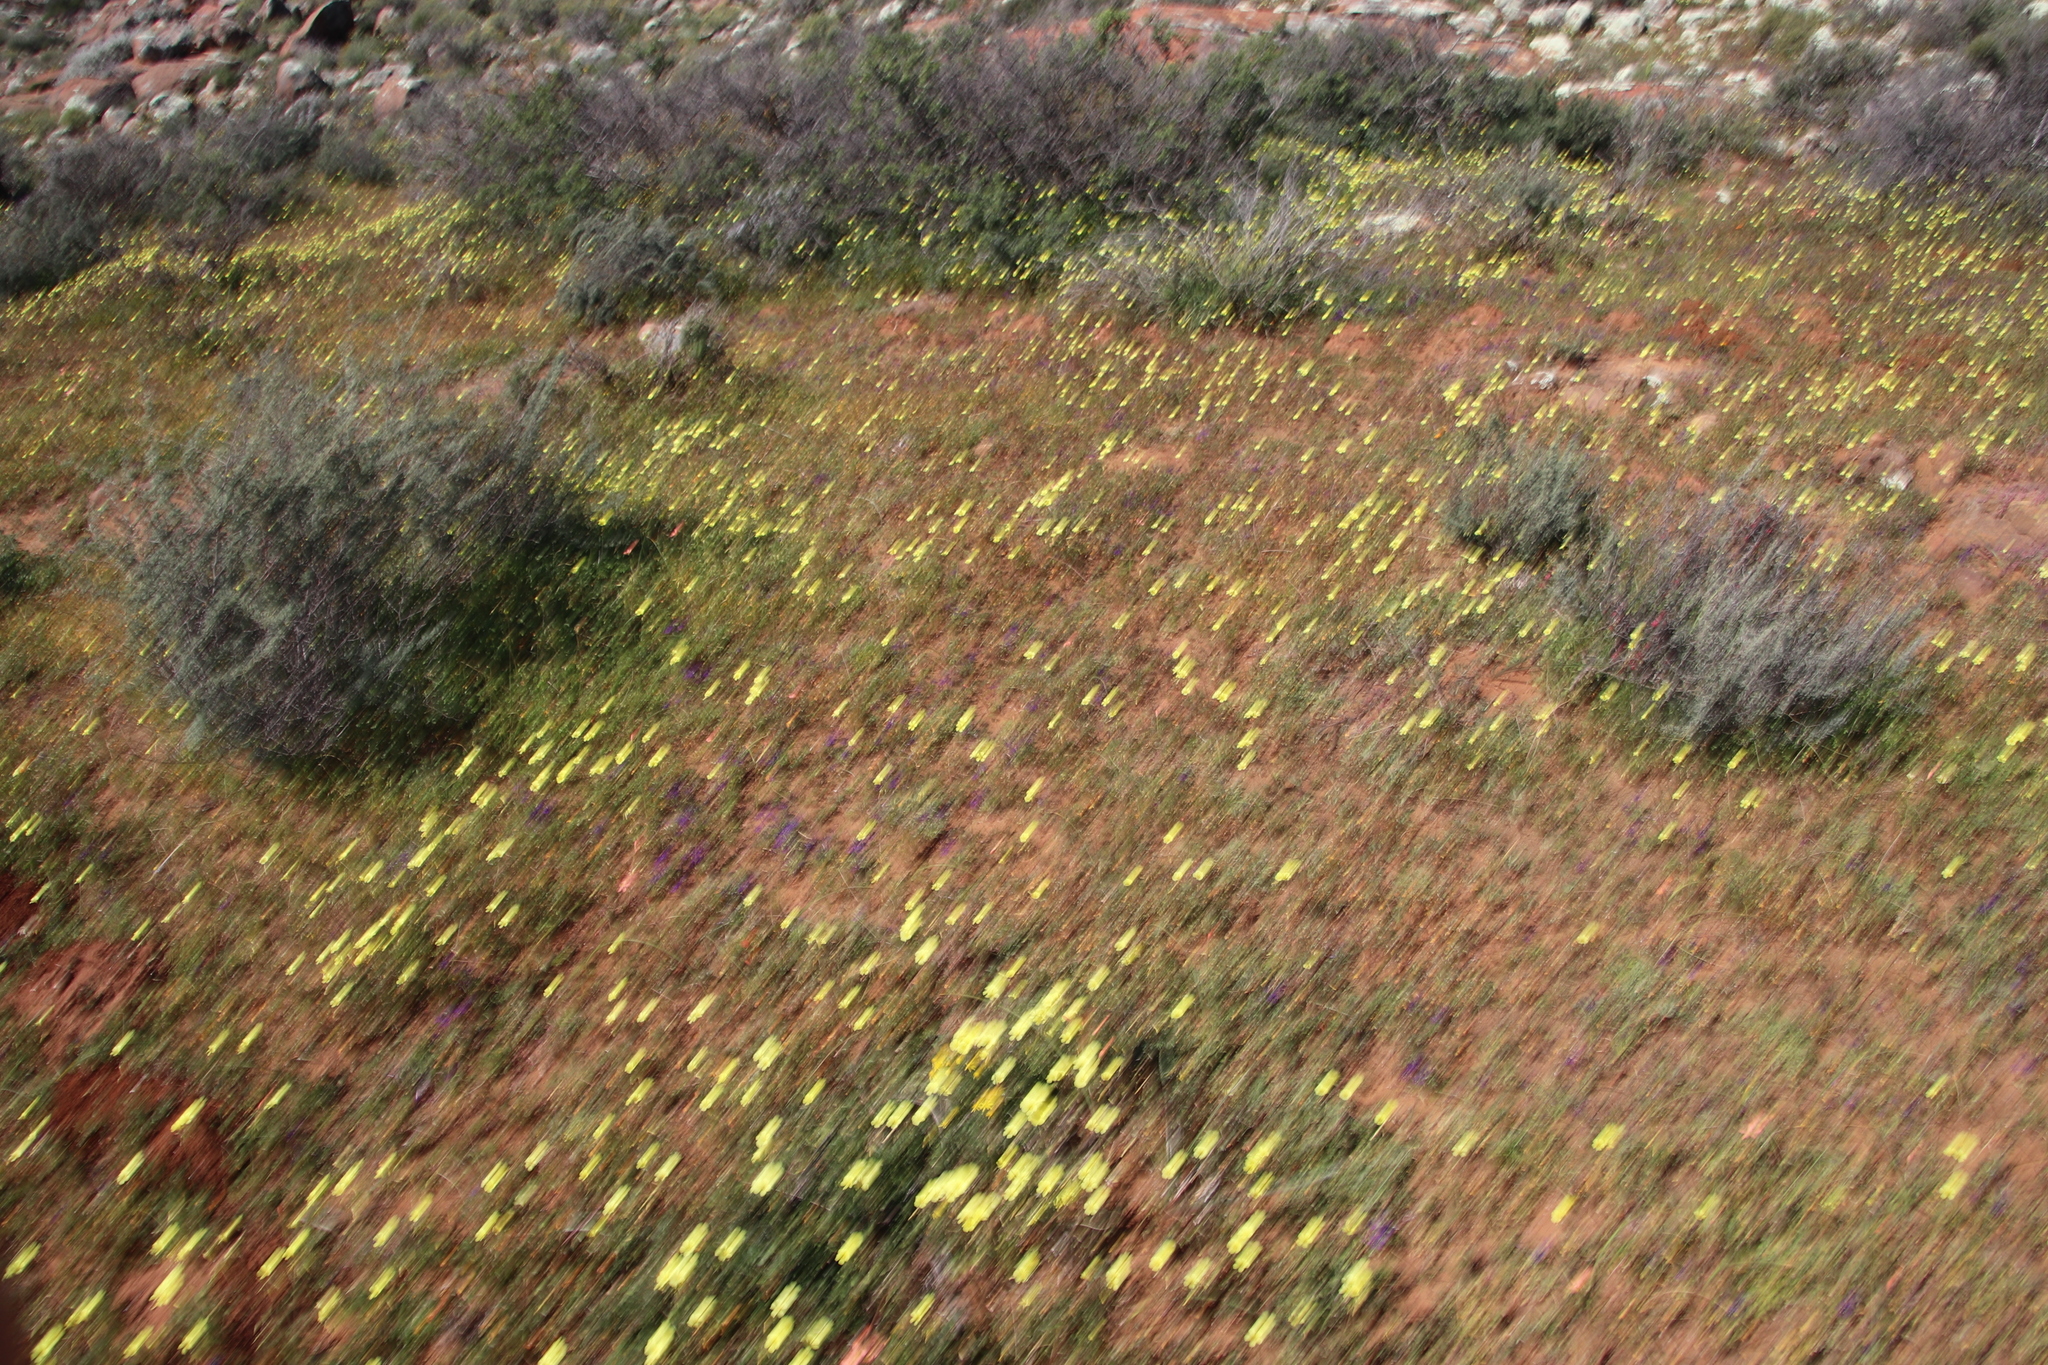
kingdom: Plantae
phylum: Tracheophyta
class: Magnoliopsida
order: Oxalidales
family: Oxalidaceae
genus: Oxalis
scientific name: Oxalis pes-caprae
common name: Bermuda-buttercup
